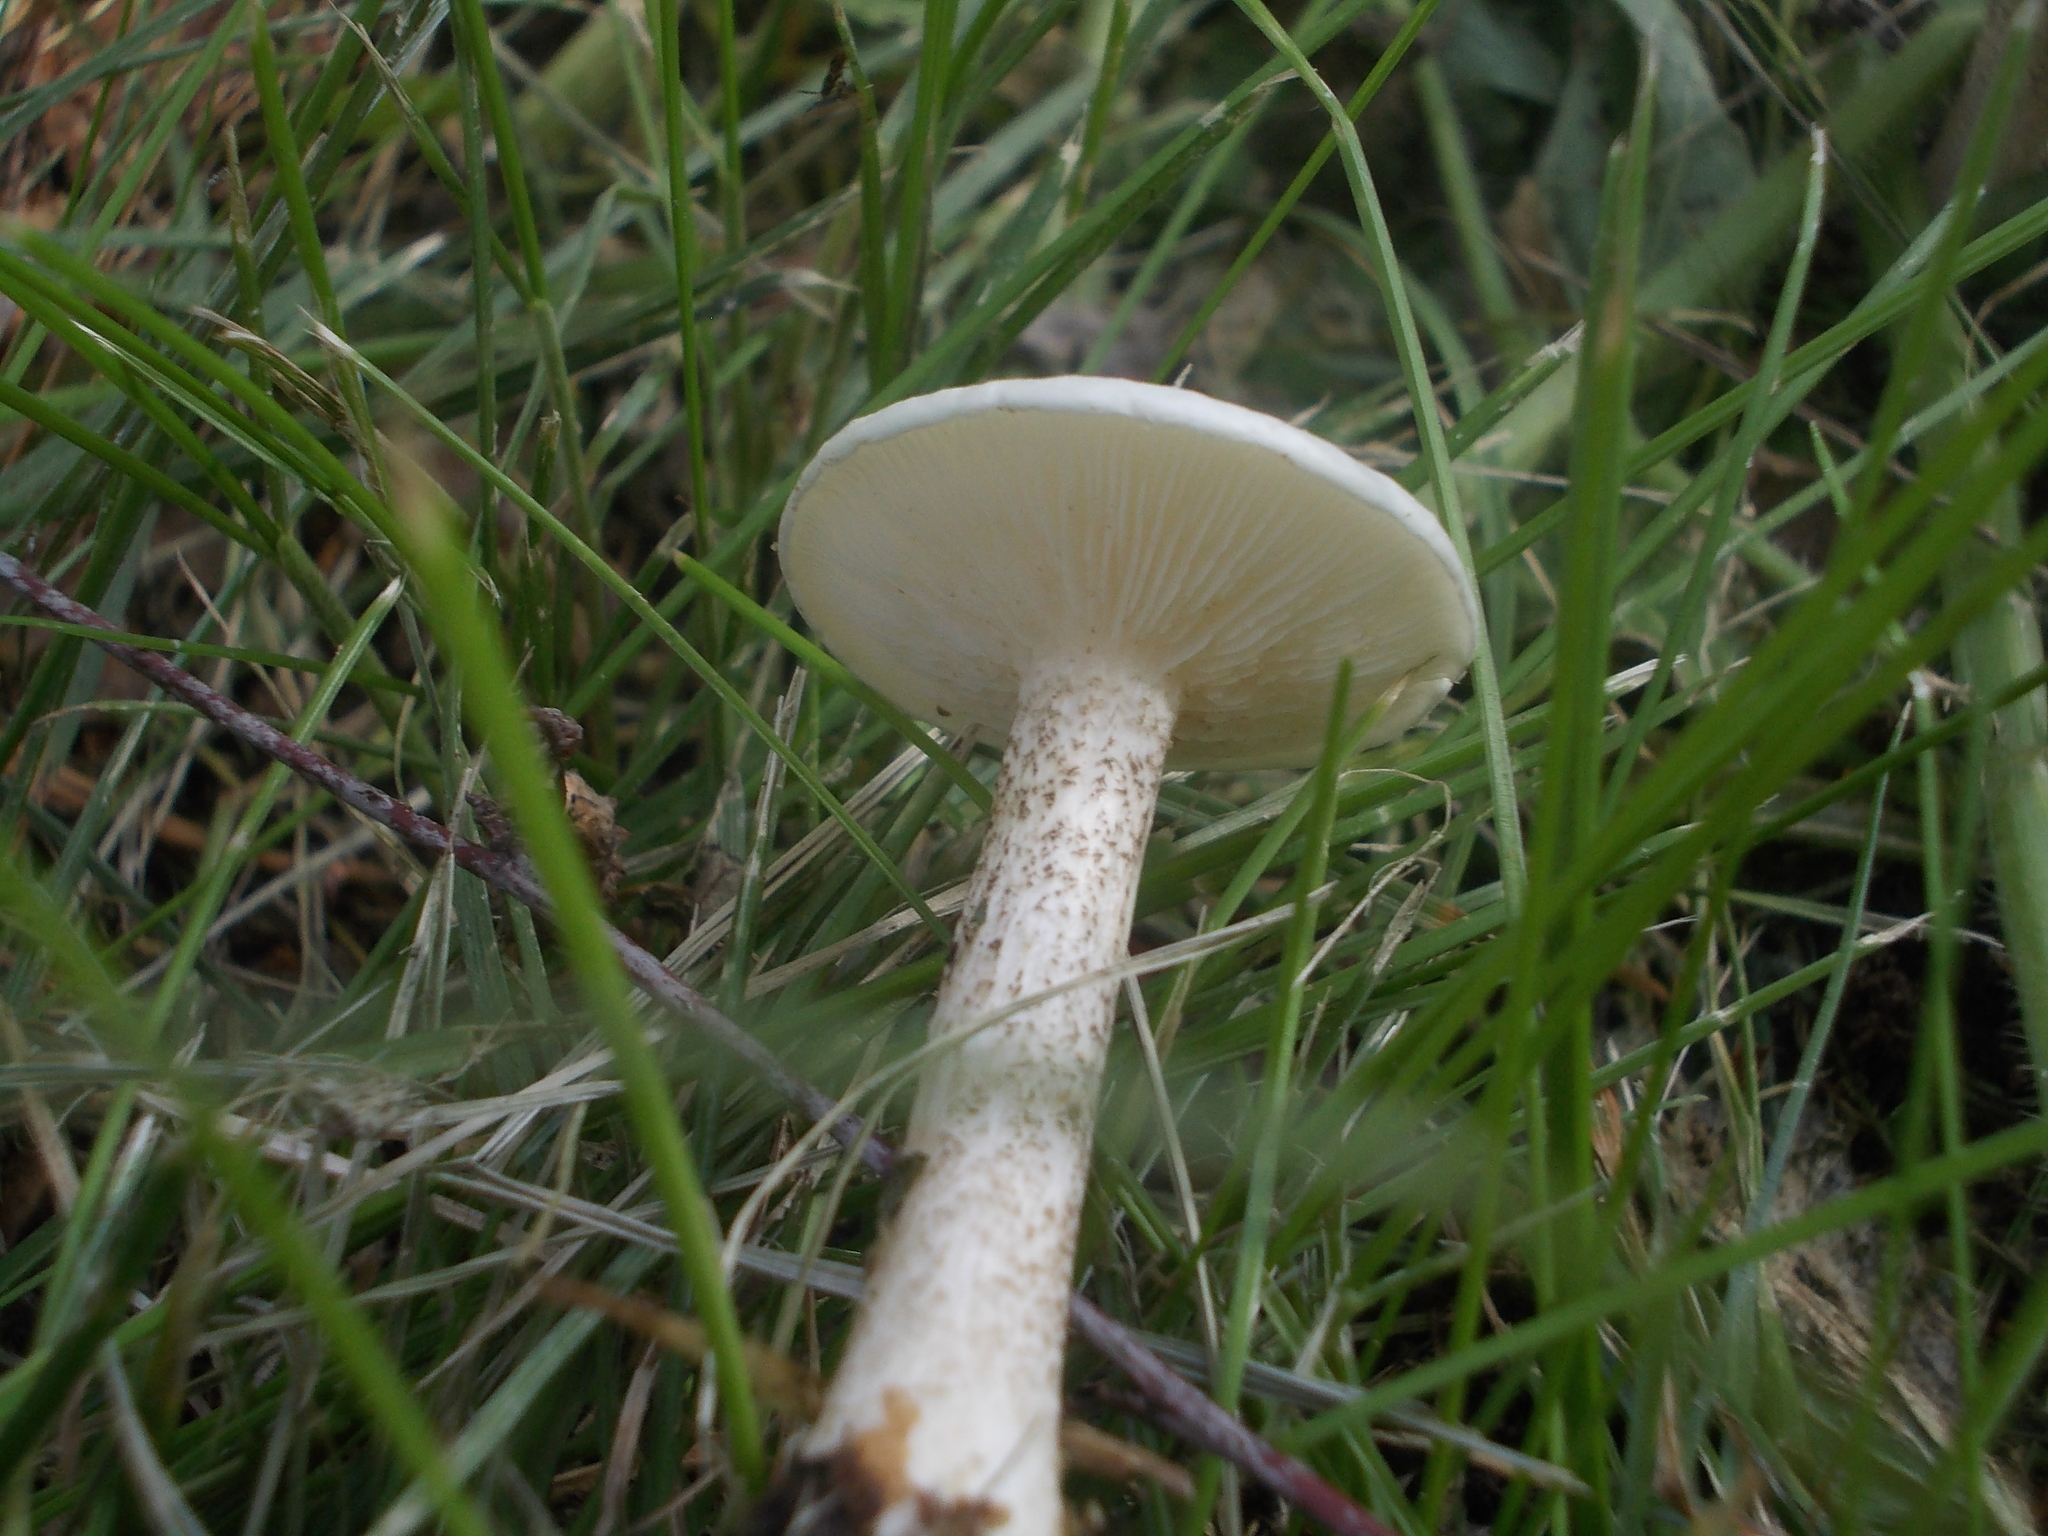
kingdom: Fungi
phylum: Basidiomycota
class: Agaricomycetes
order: Agaricales
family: Tricholomataceae
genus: Melanoleuca
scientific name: Melanoleuca verrucipes
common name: Warty cavalier
